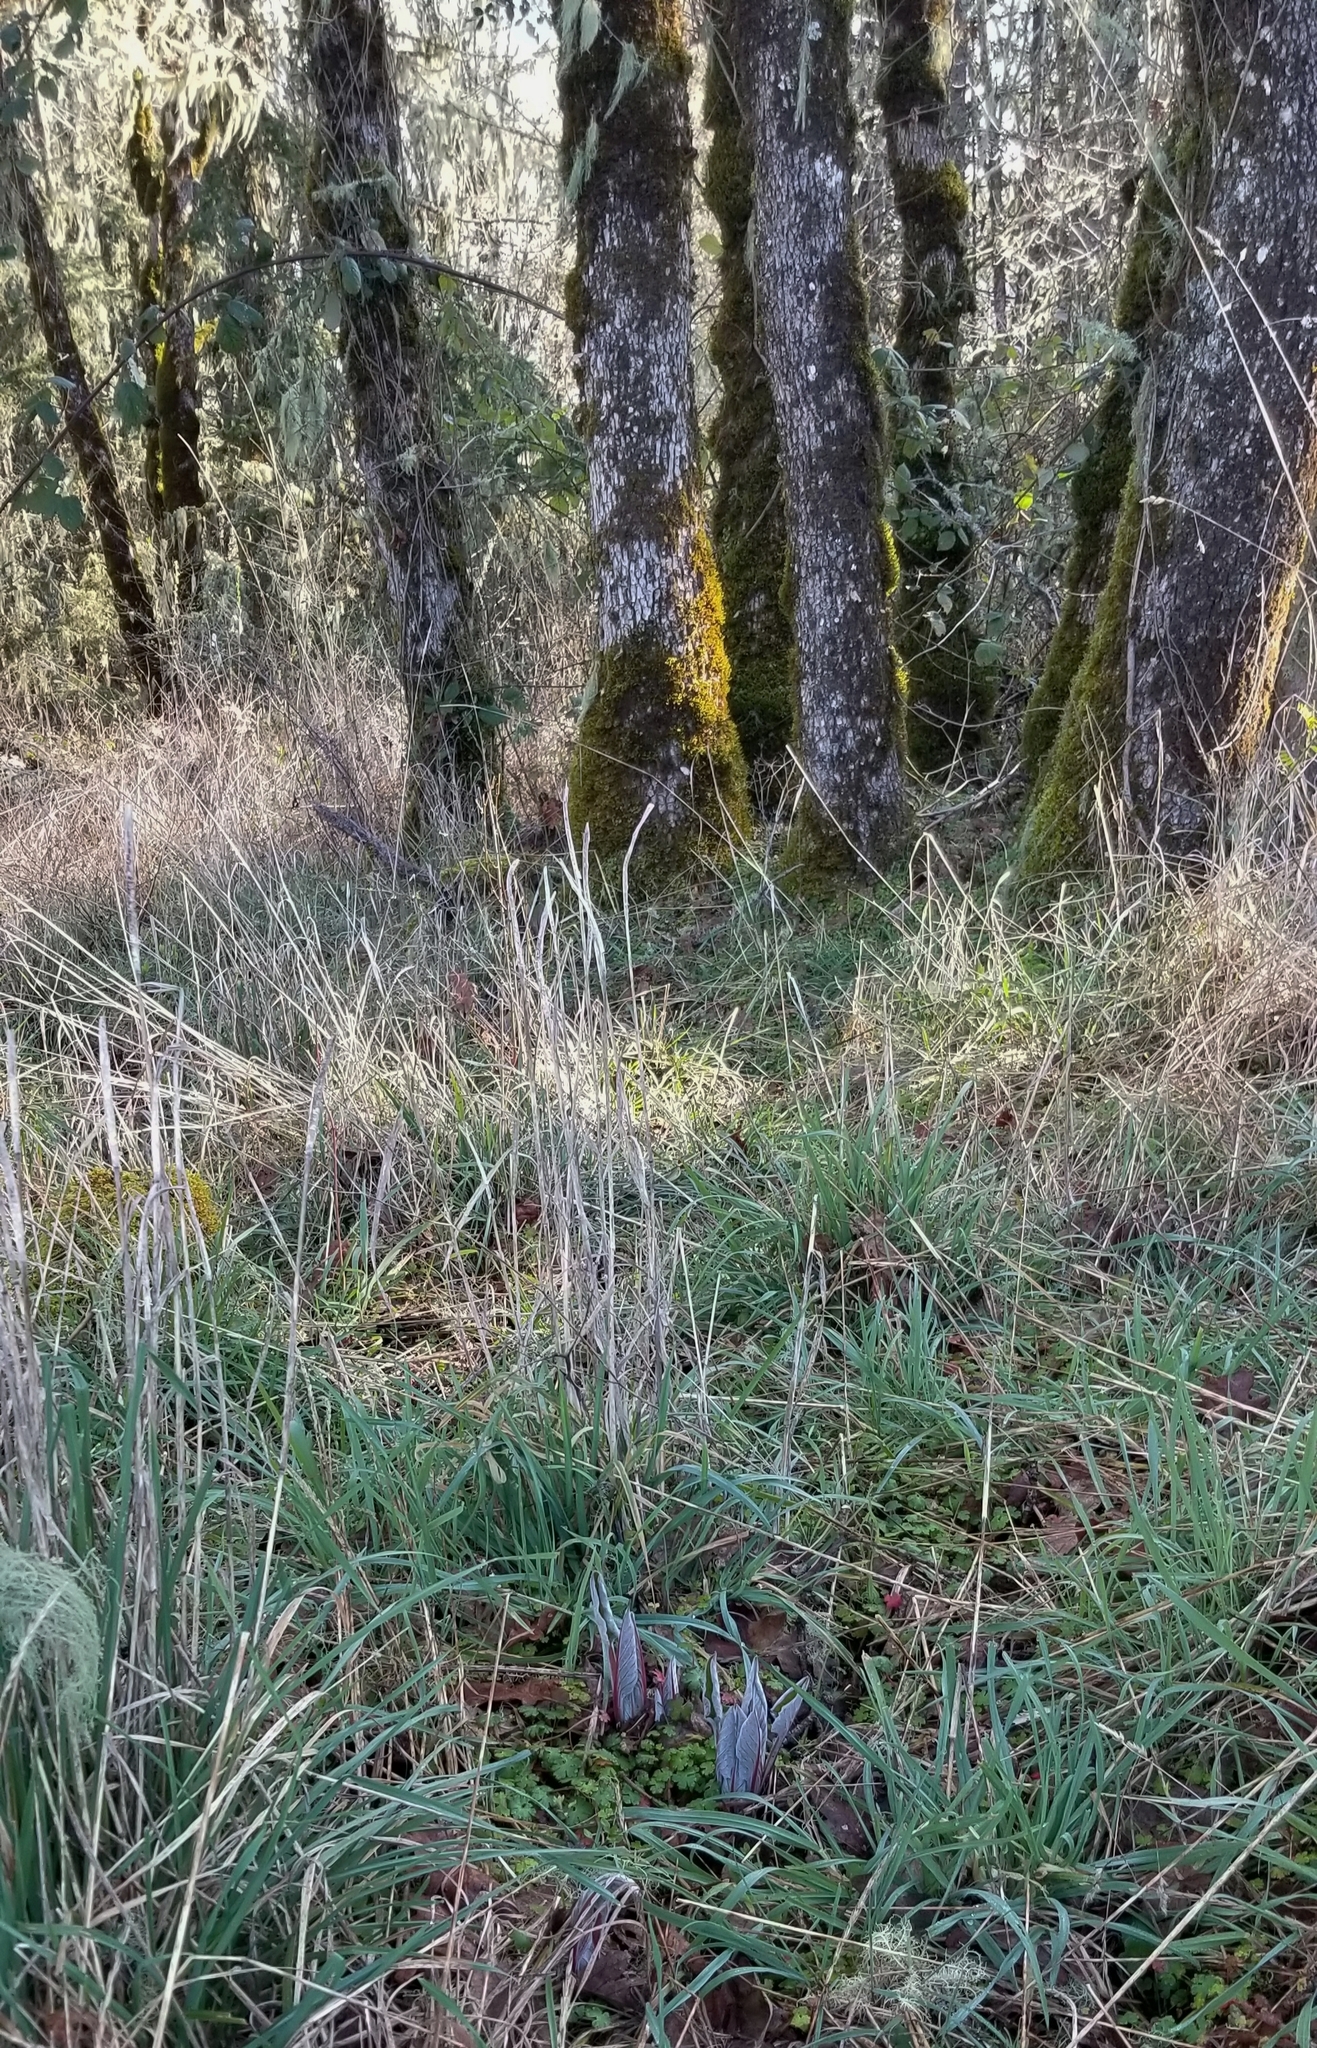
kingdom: Plantae
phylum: Tracheophyta
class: Magnoliopsida
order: Boraginales
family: Boraginaceae
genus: Adelinia
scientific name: Adelinia grande
